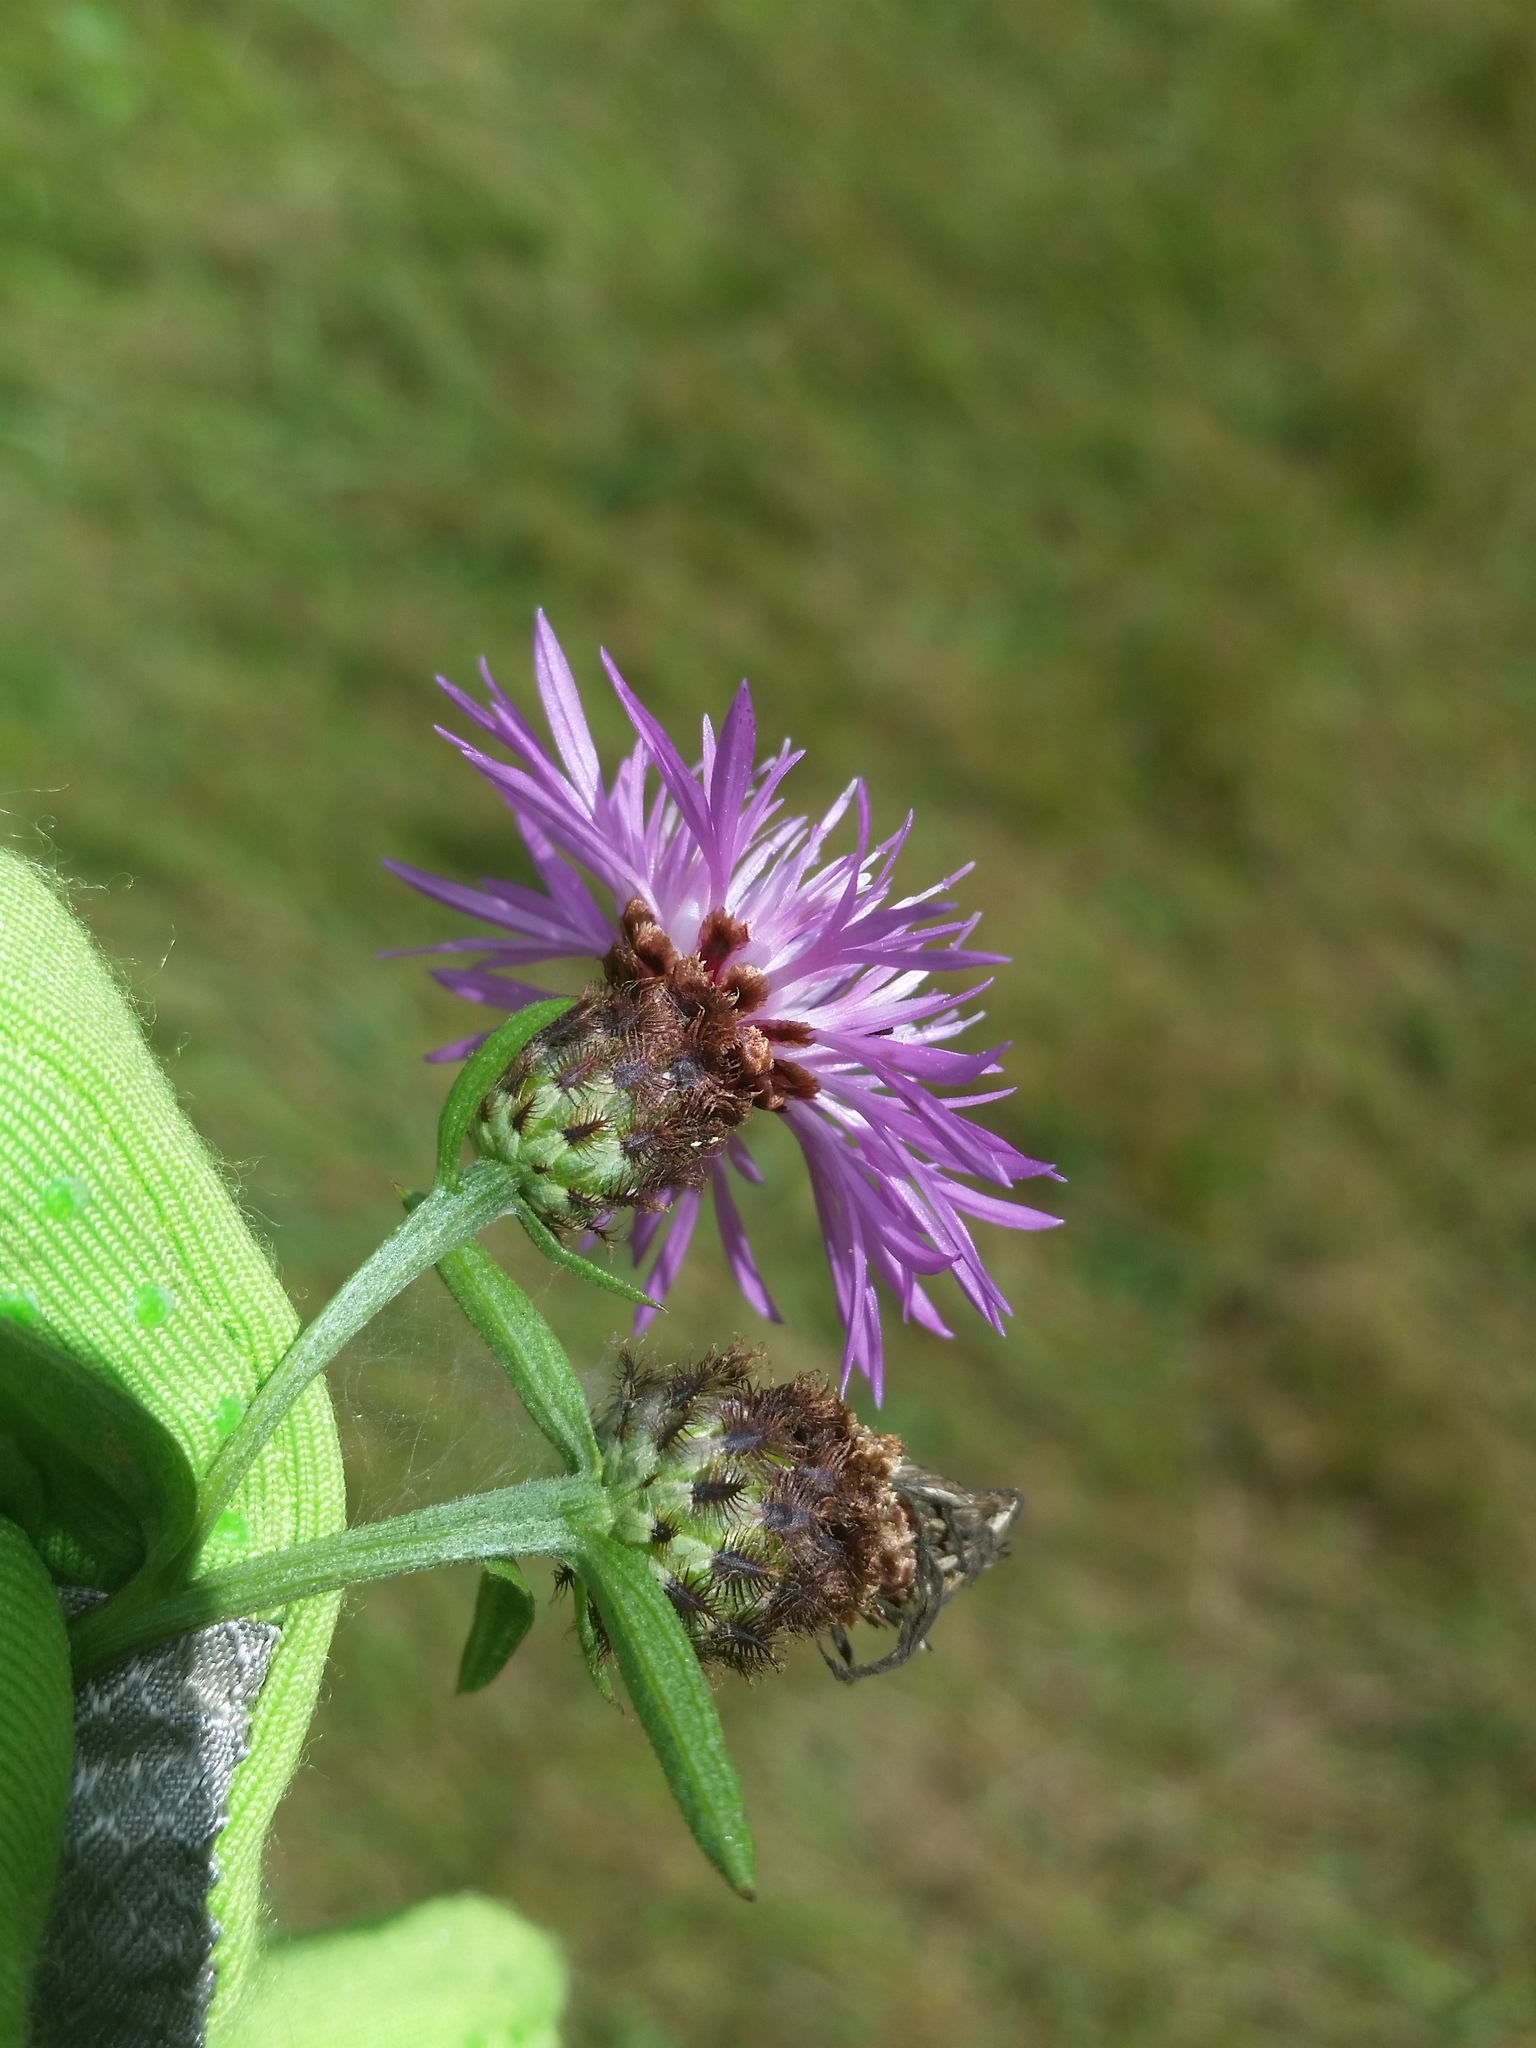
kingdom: Plantae
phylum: Tracheophyta
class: Magnoliopsida
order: Asterales
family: Asteraceae
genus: Centaurea
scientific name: Centaurea moncktonii
